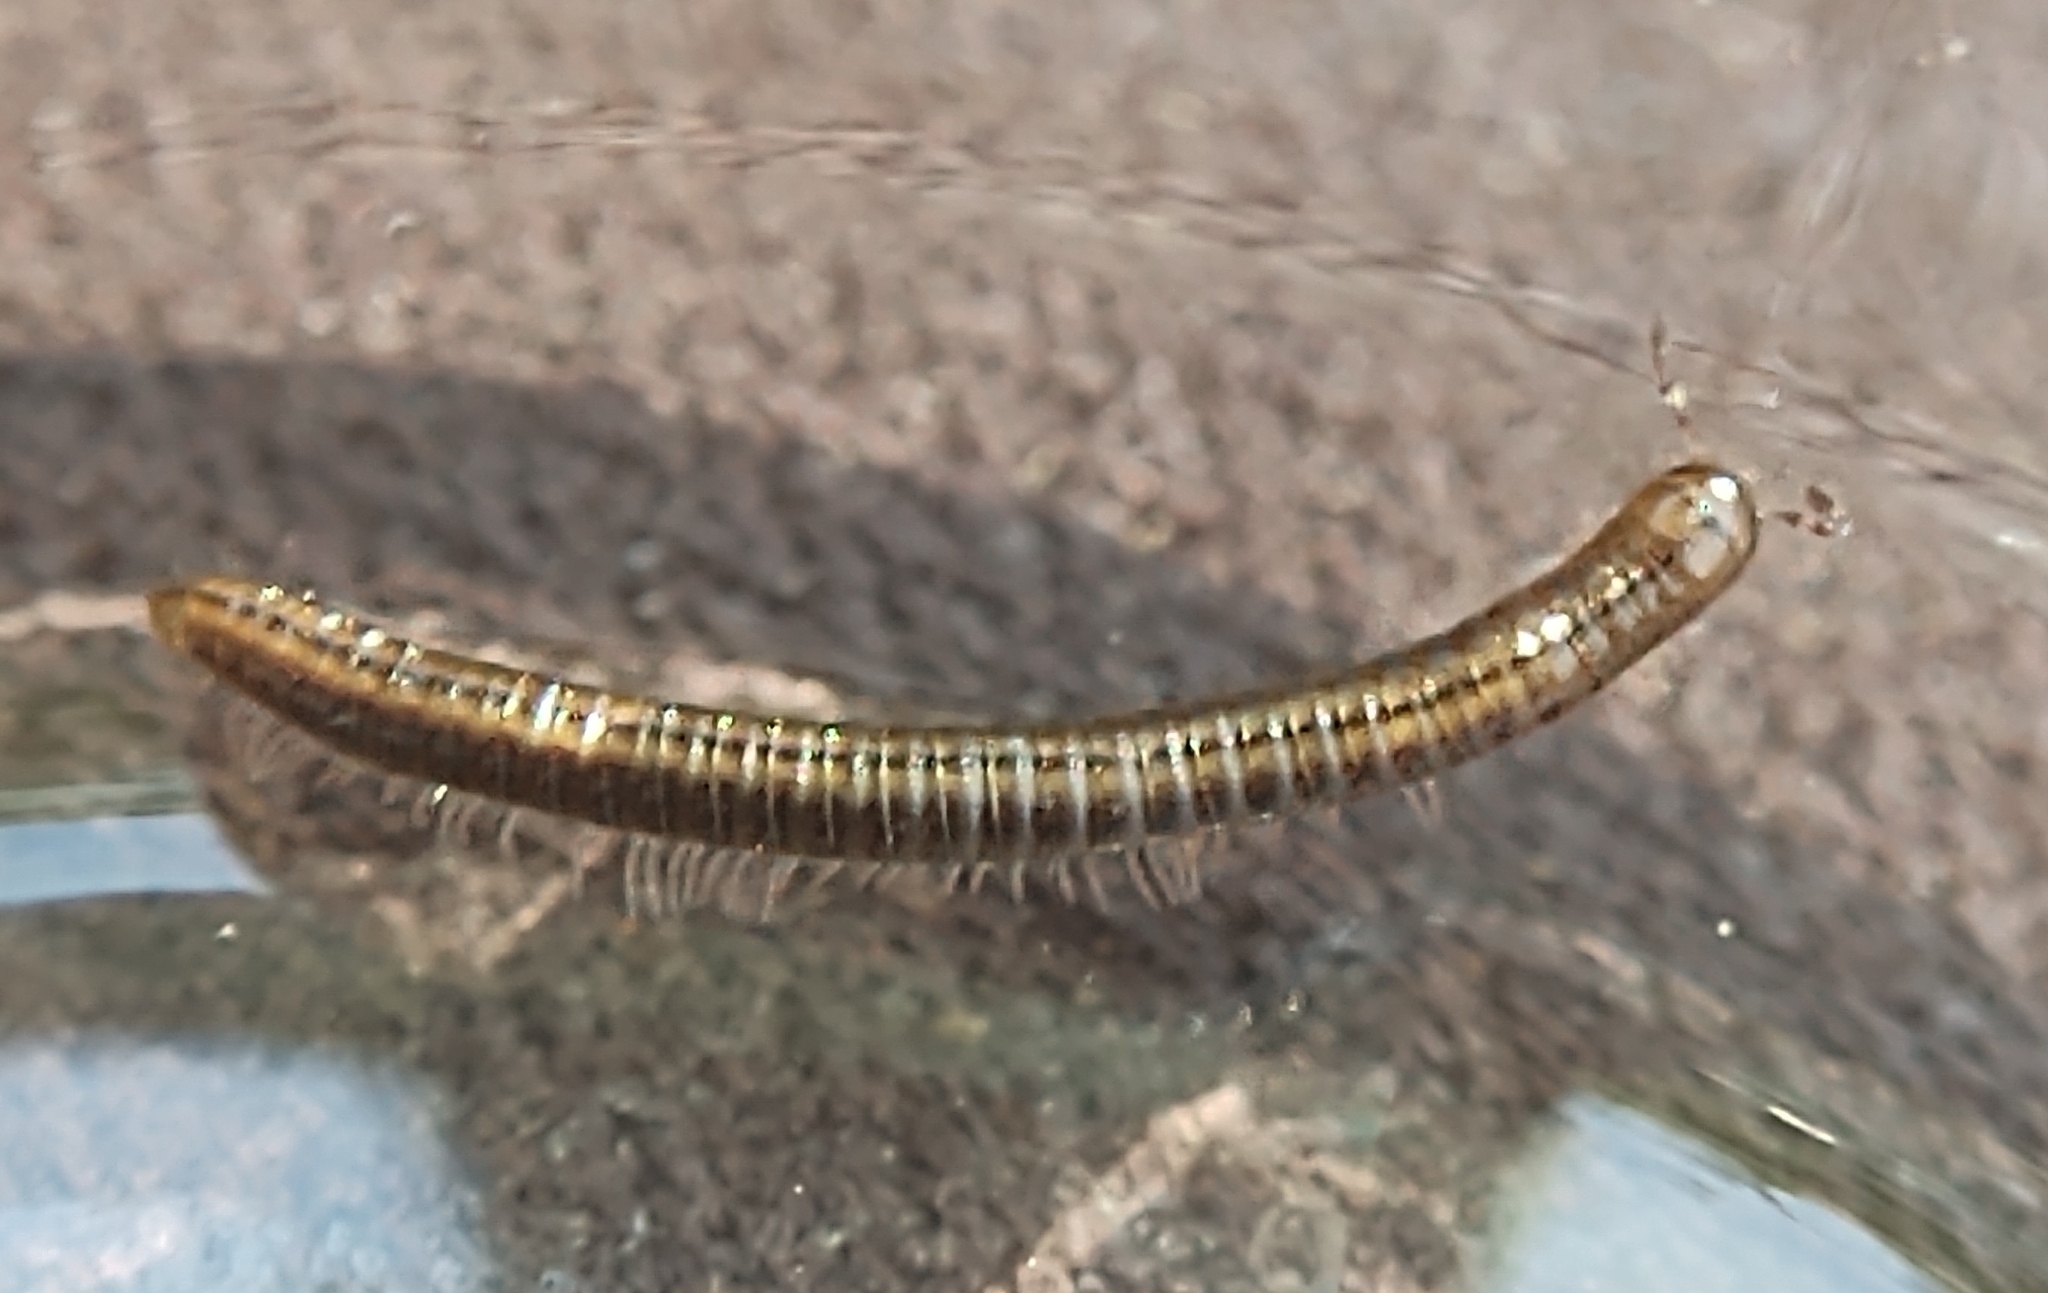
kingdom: Animalia
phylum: Arthropoda
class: Diplopoda
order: Julida
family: Julidae
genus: Brachyiulus
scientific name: Brachyiulus lusitanus
